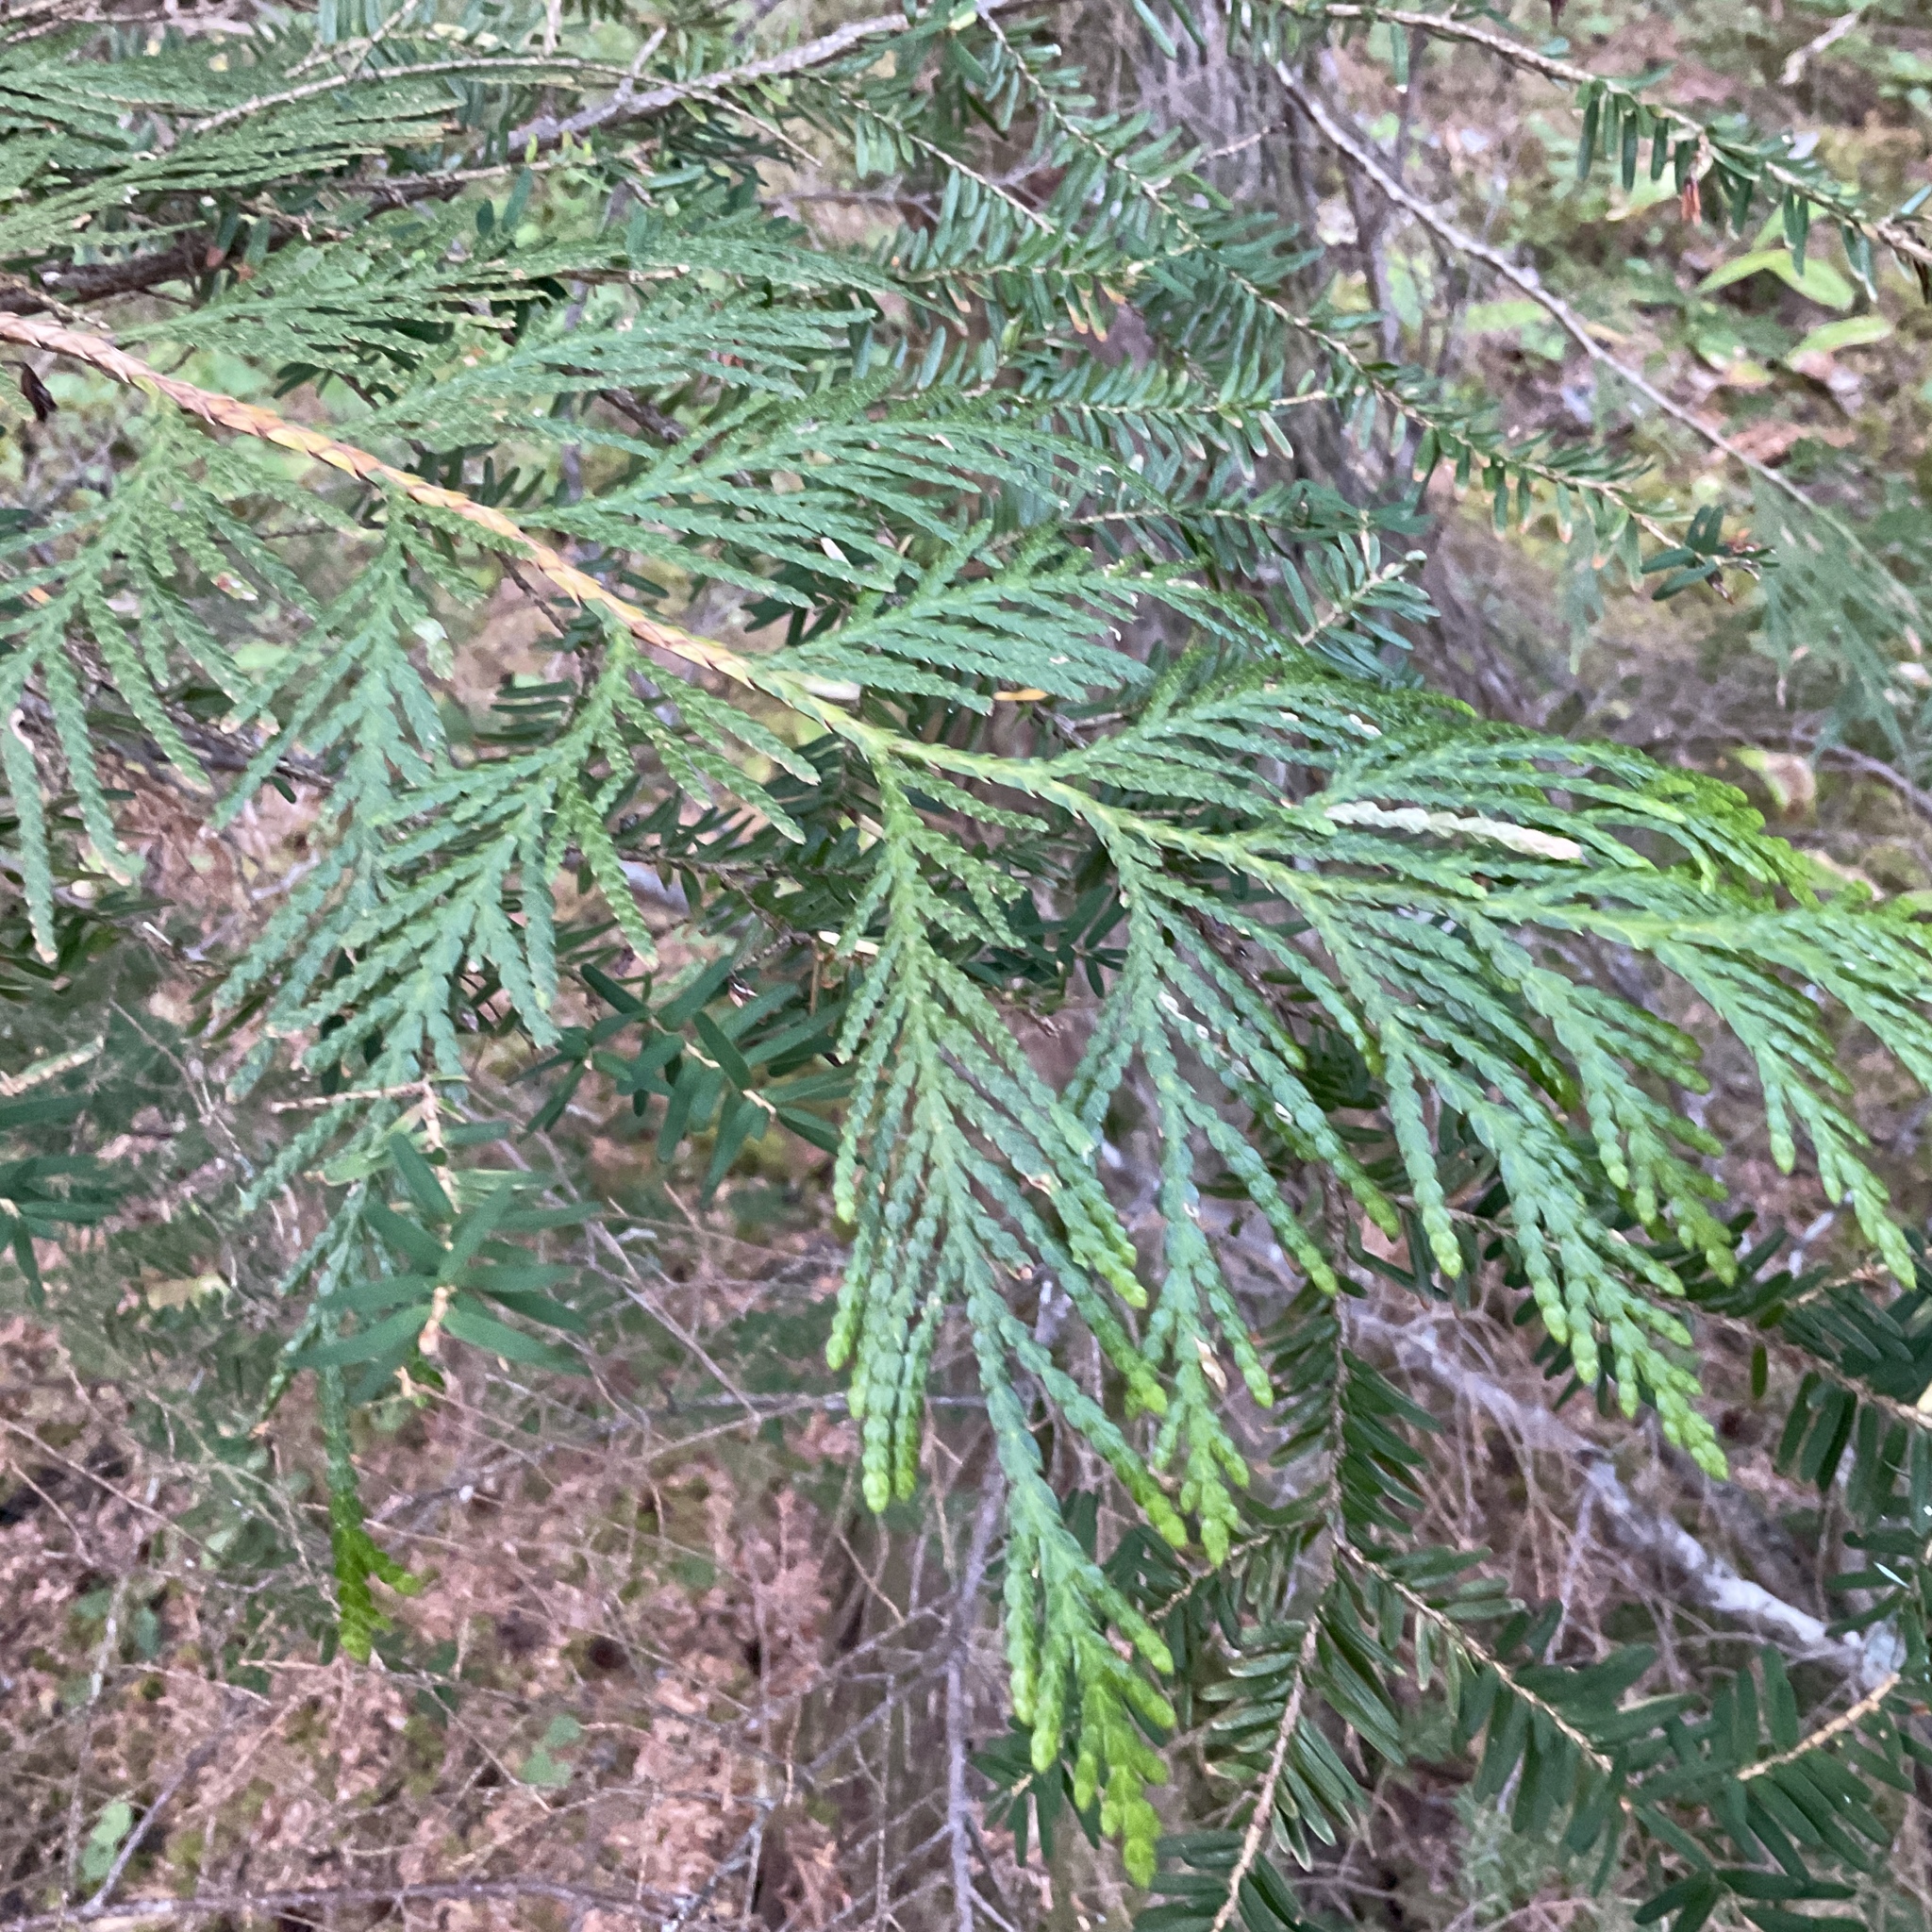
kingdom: Plantae
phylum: Tracheophyta
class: Pinopsida
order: Pinales
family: Cupressaceae
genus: Thuja
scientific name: Thuja plicata
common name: Western red-cedar
